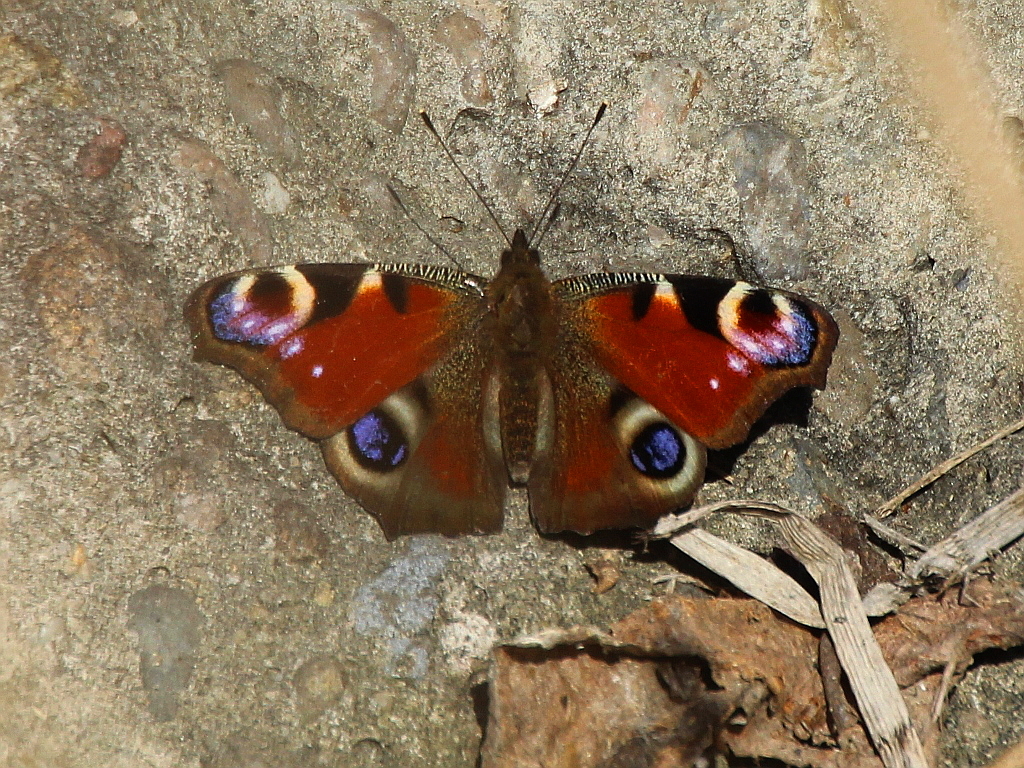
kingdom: Animalia
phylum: Arthropoda
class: Insecta
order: Lepidoptera
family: Nymphalidae
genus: Aglais
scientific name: Aglais io
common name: Peacock
